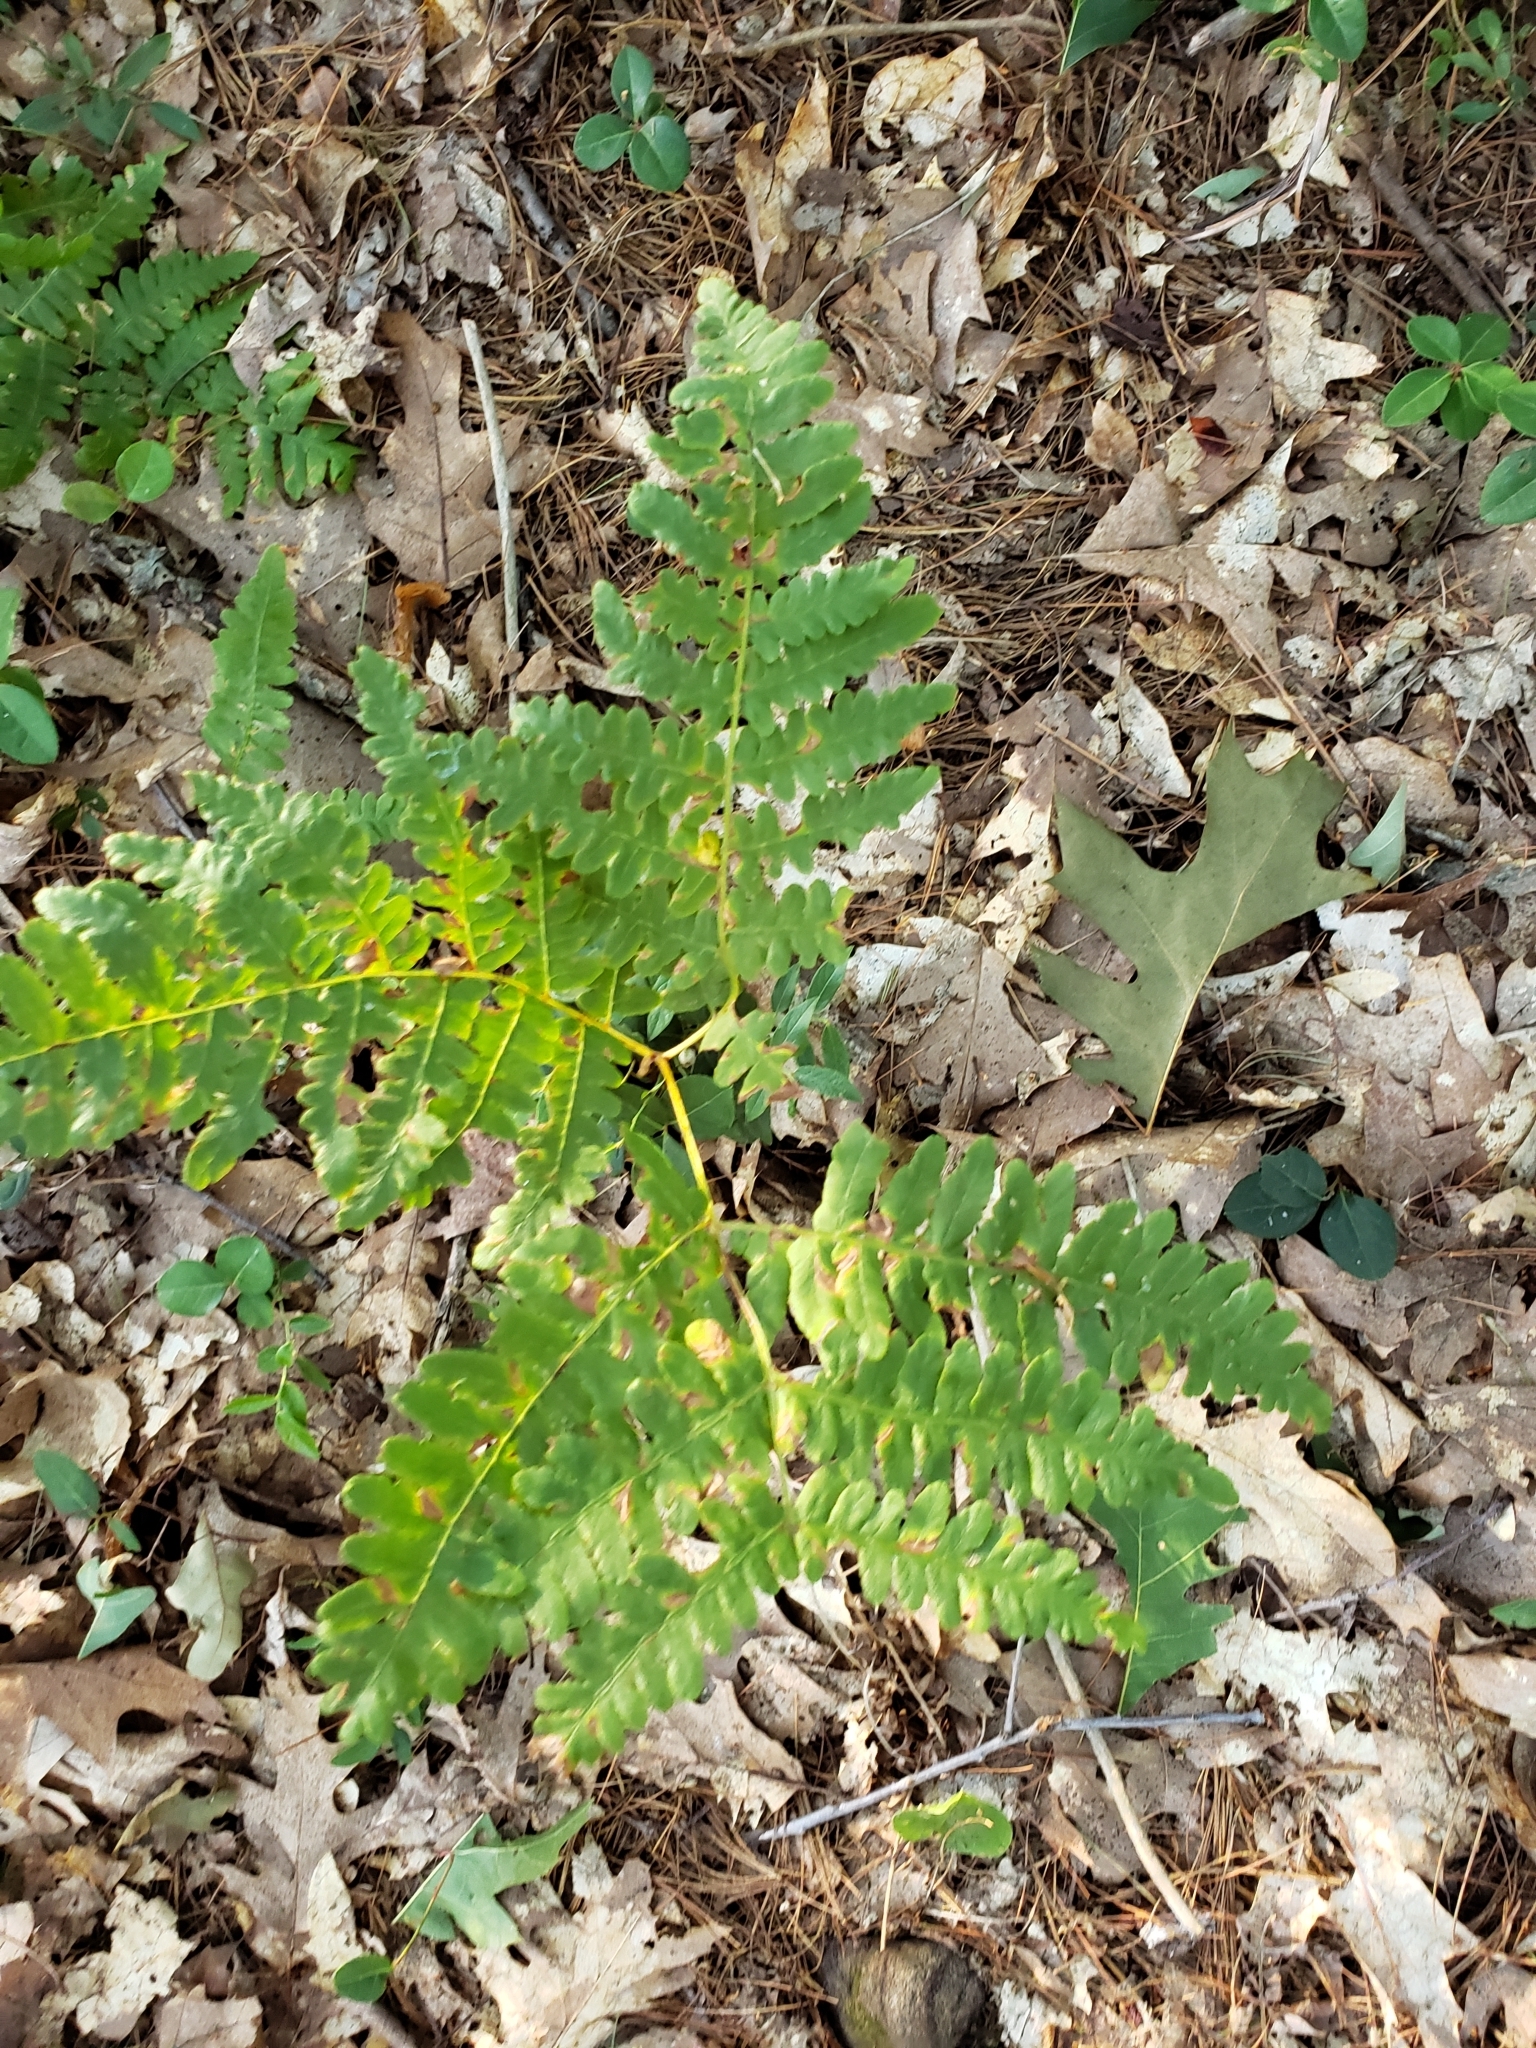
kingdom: Plantae
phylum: Tracheophyta
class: Polypodiopsida
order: Polypodiales
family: Dennstaedtiaceae
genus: Pteridium
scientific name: Pteridium aquilinum
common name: Bracken
